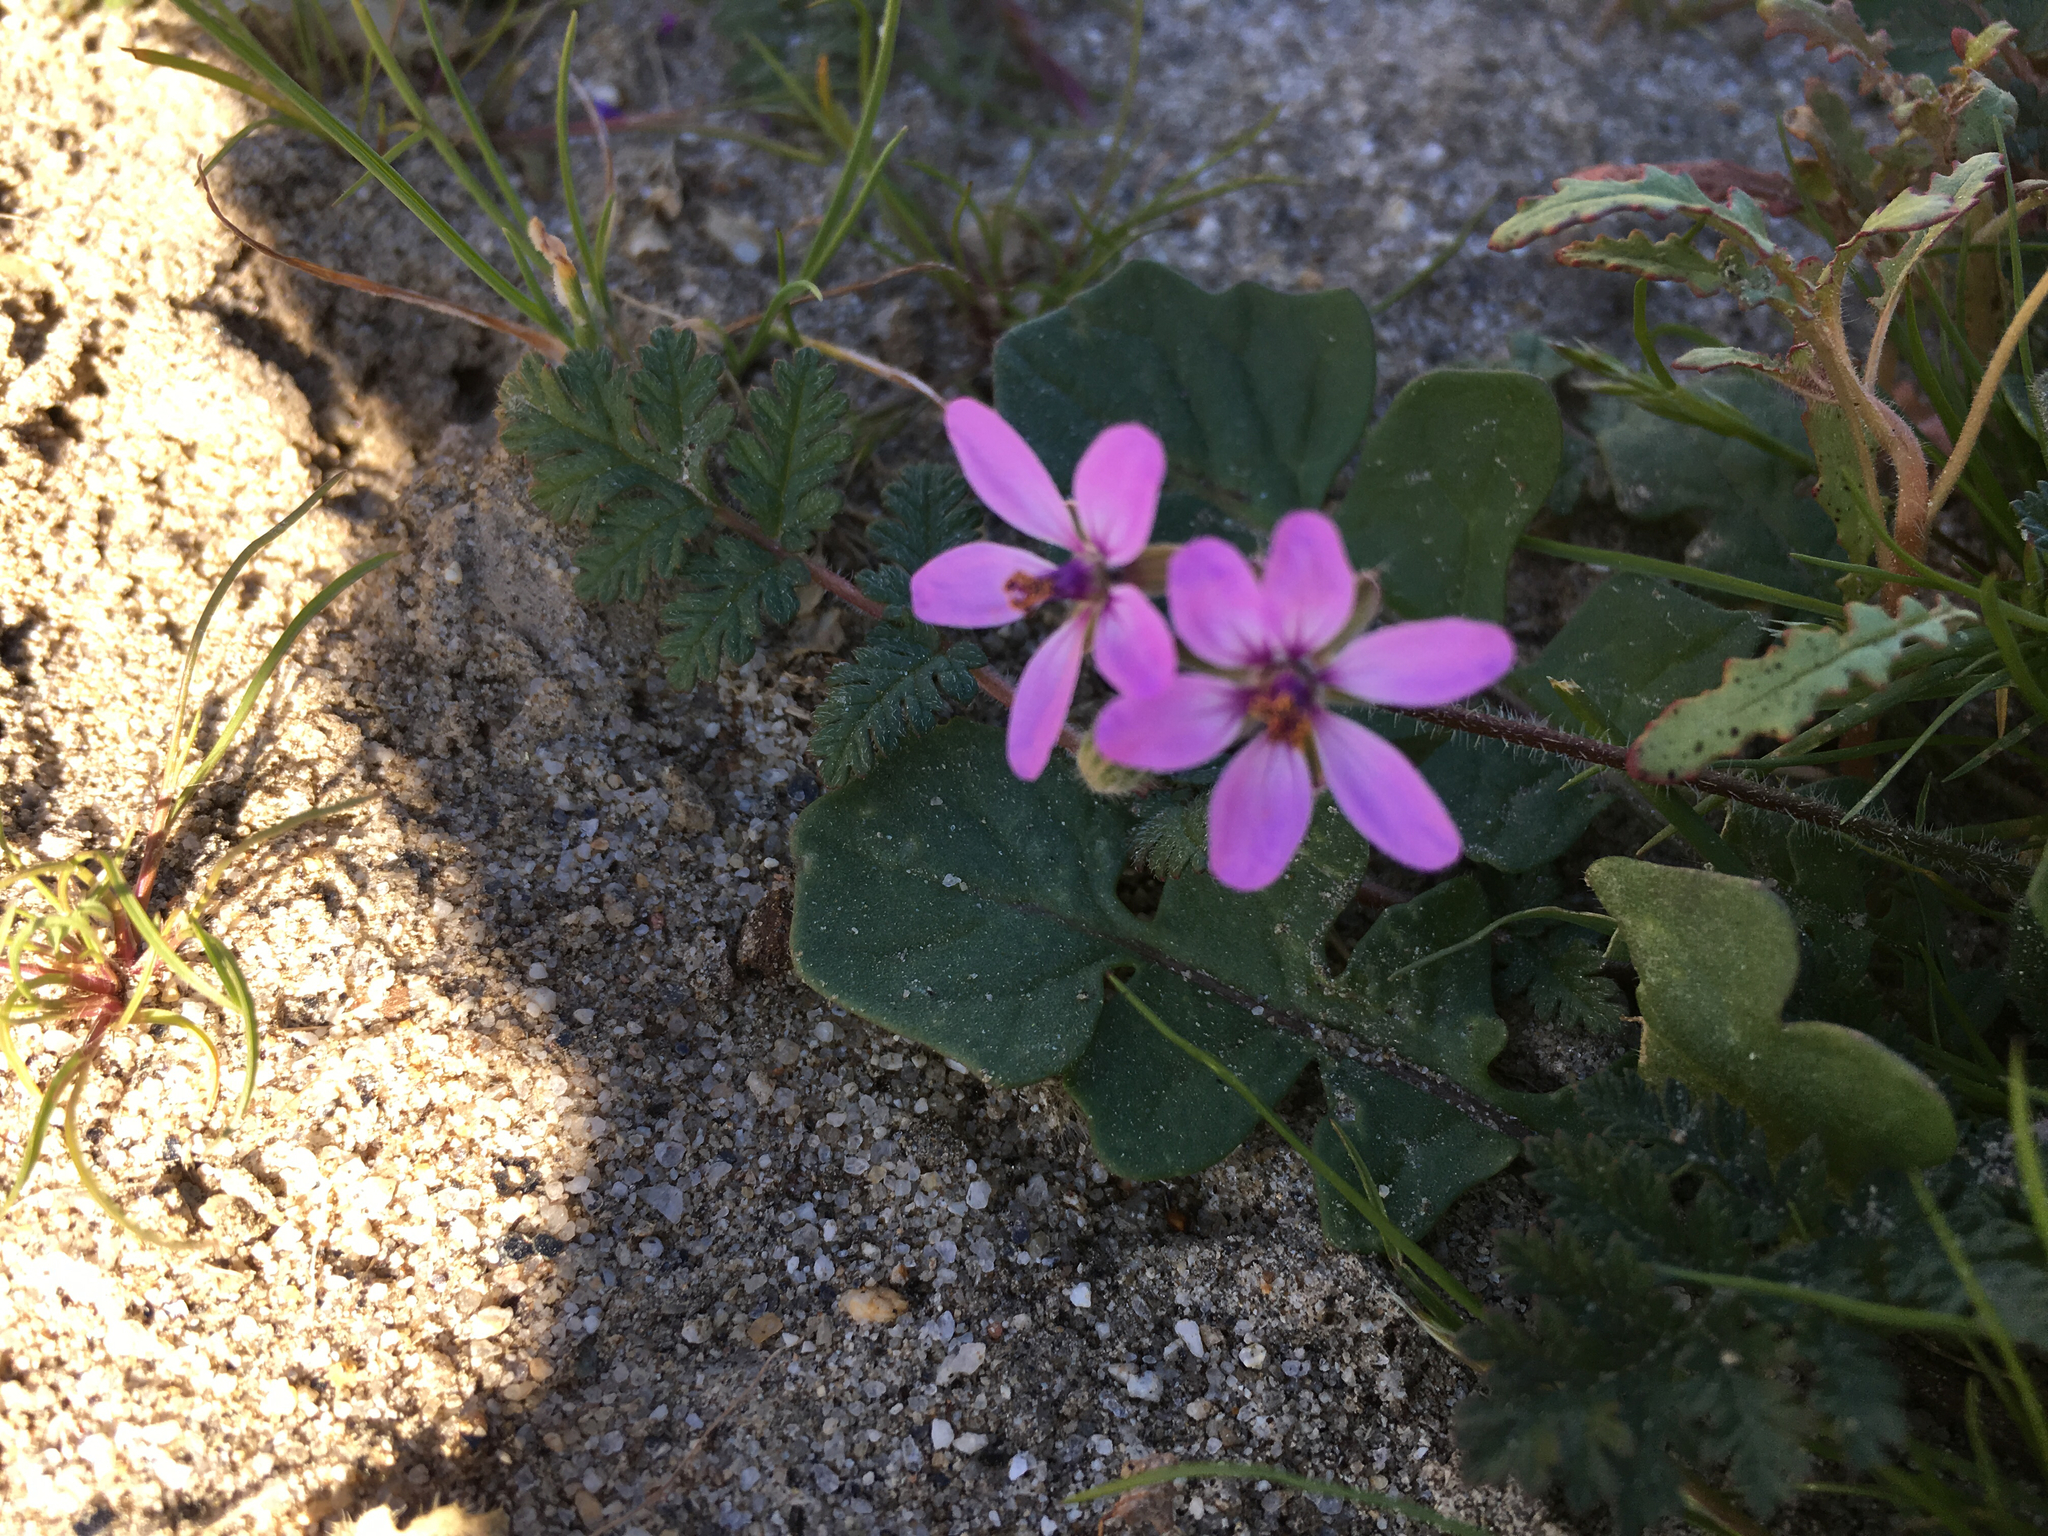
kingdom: Plantae
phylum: Tracheophyta
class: Magnoliopsida
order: Geraniales
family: Geraniaceae
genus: Erodium
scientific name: Erodium cicutarium
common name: Common stork's-bill
